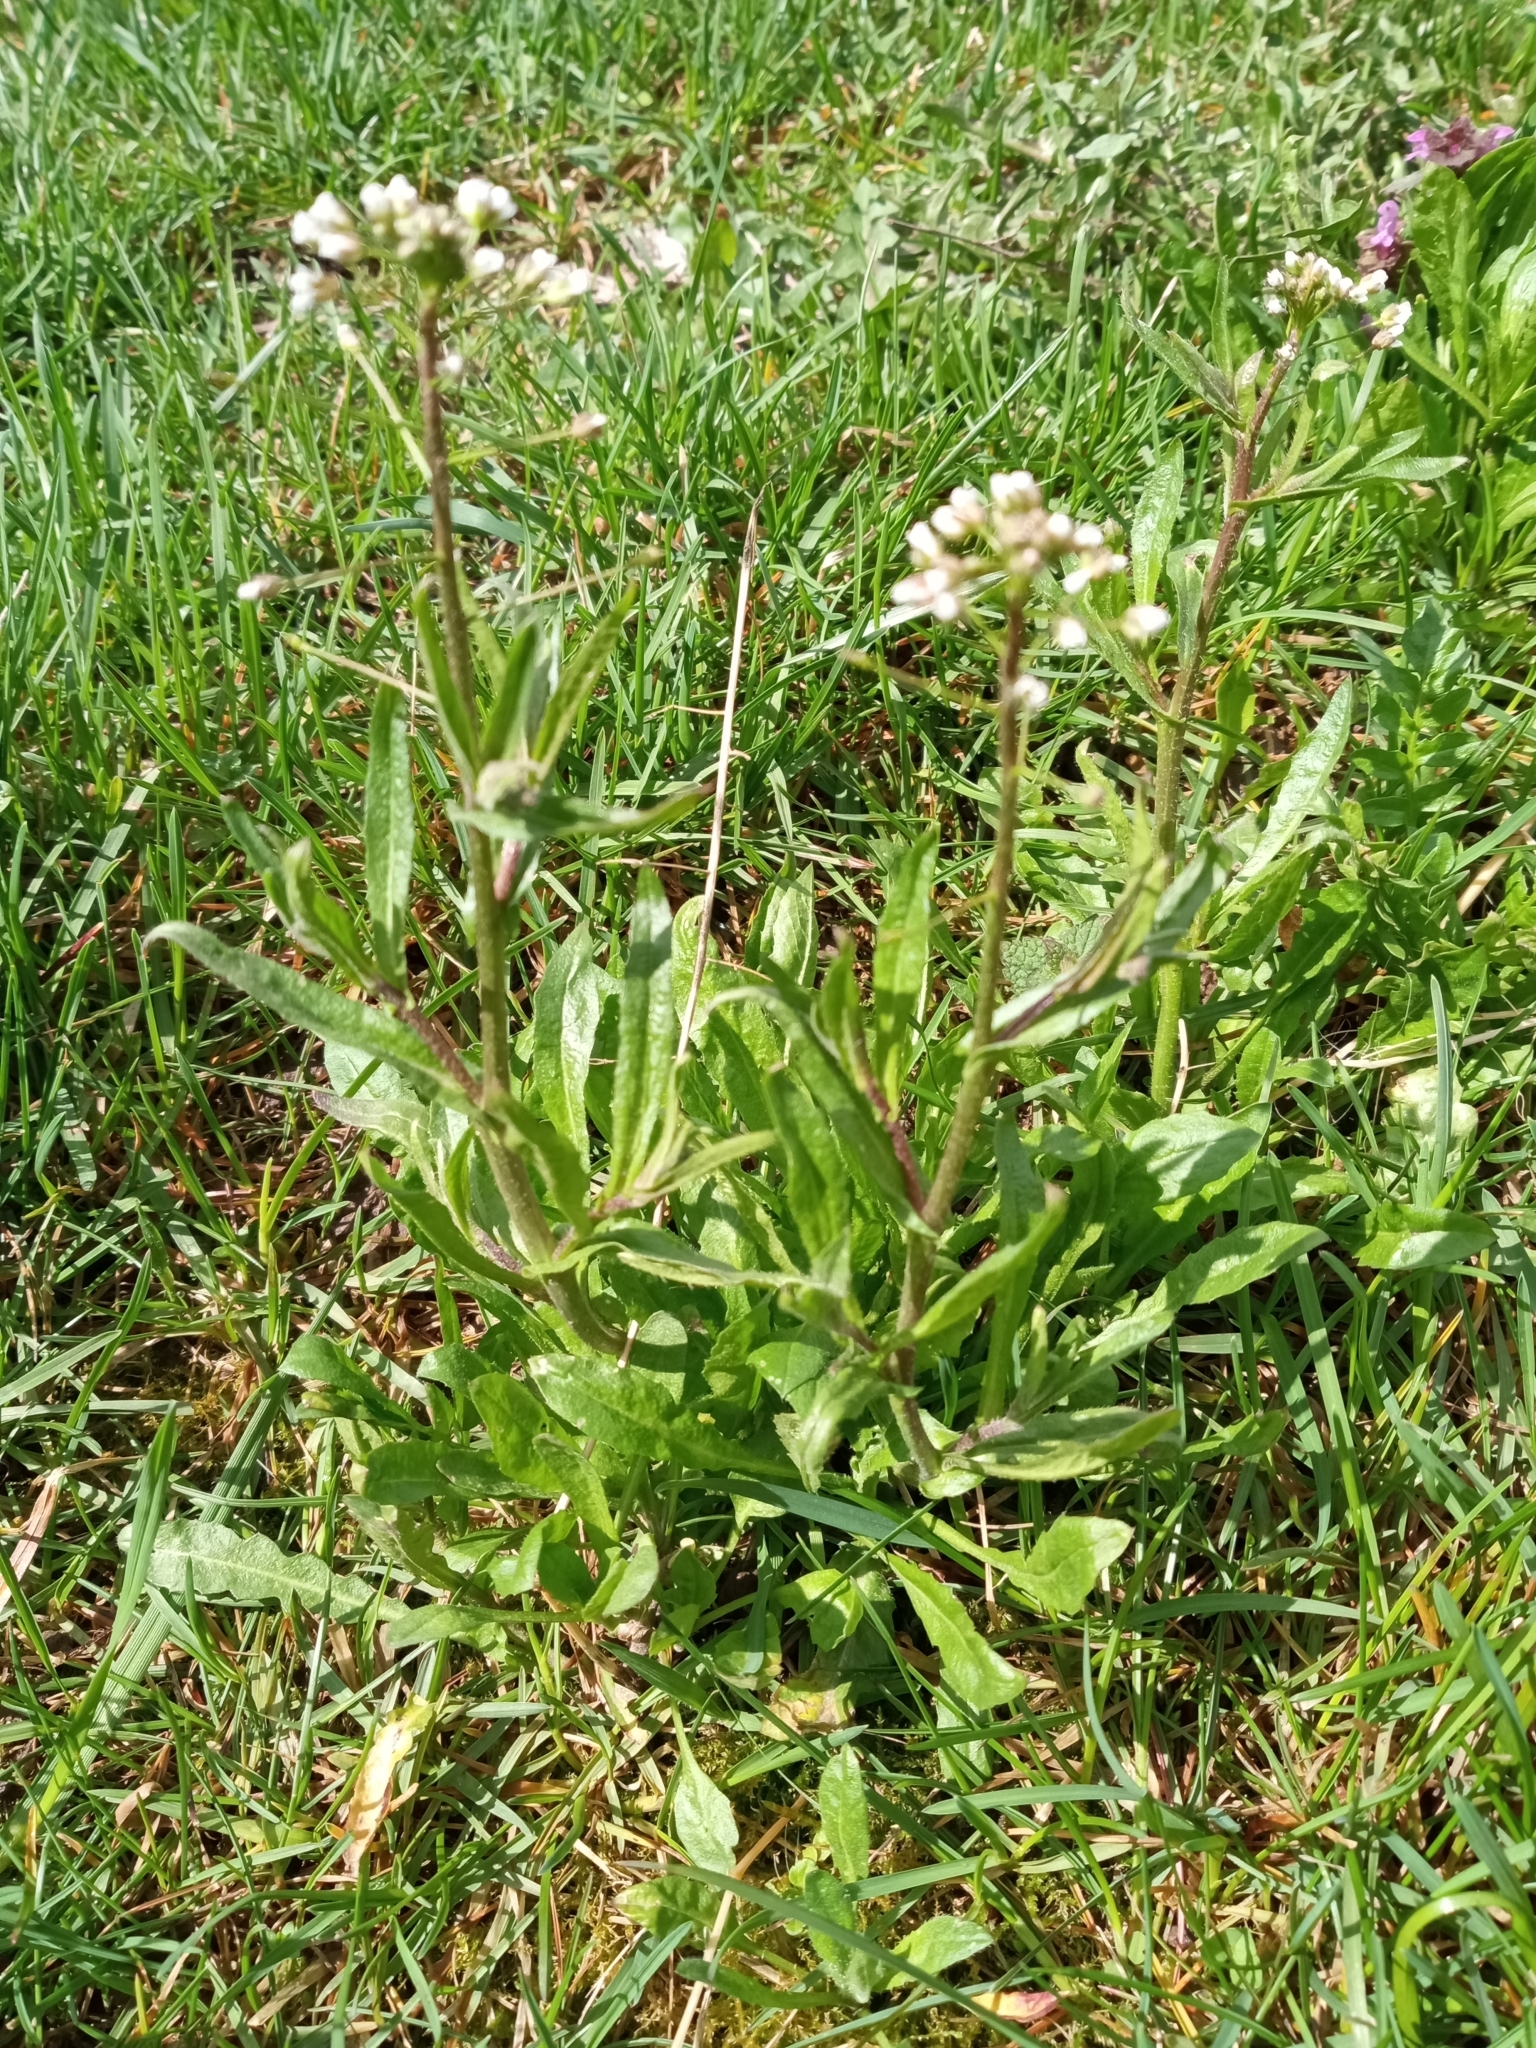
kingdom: Plantae
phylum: Tracheophyta
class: Magnoliopsida
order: Brassicales
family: Brassicaceae
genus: Capsella
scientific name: Capsella bursa-pastoris
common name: Shepherd's purse
